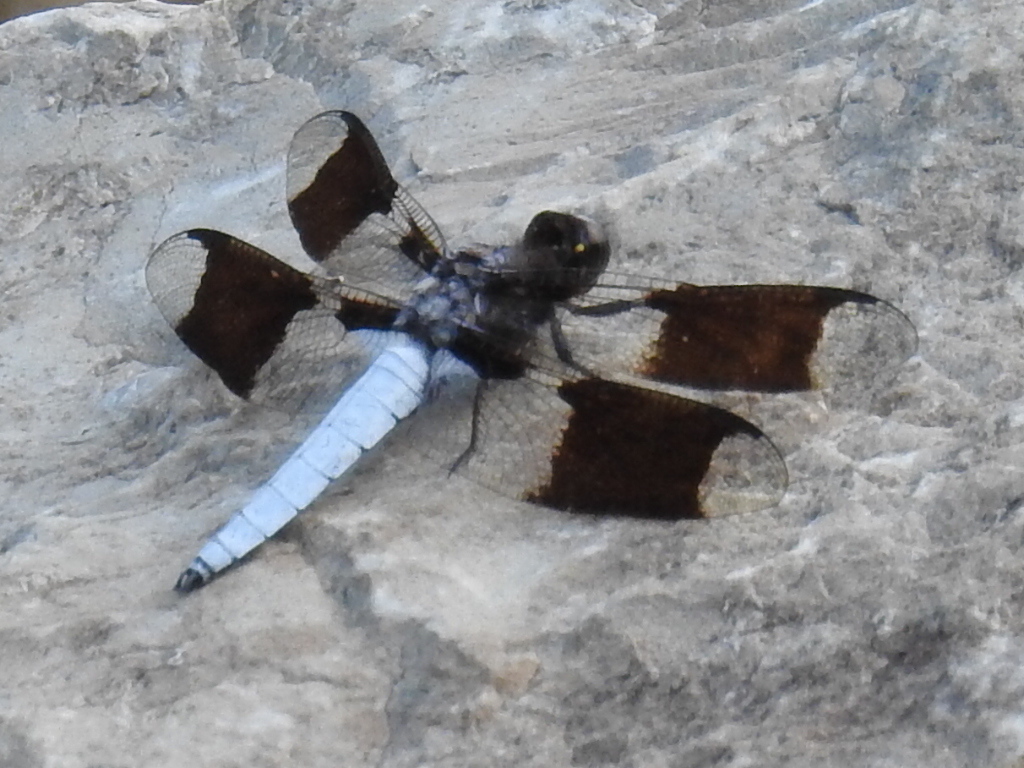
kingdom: Animalia
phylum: Arthropoda
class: Insecta
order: Odonata
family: Libellulidae
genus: Plathemis
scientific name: Plathemis lydia
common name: Common whitetail
